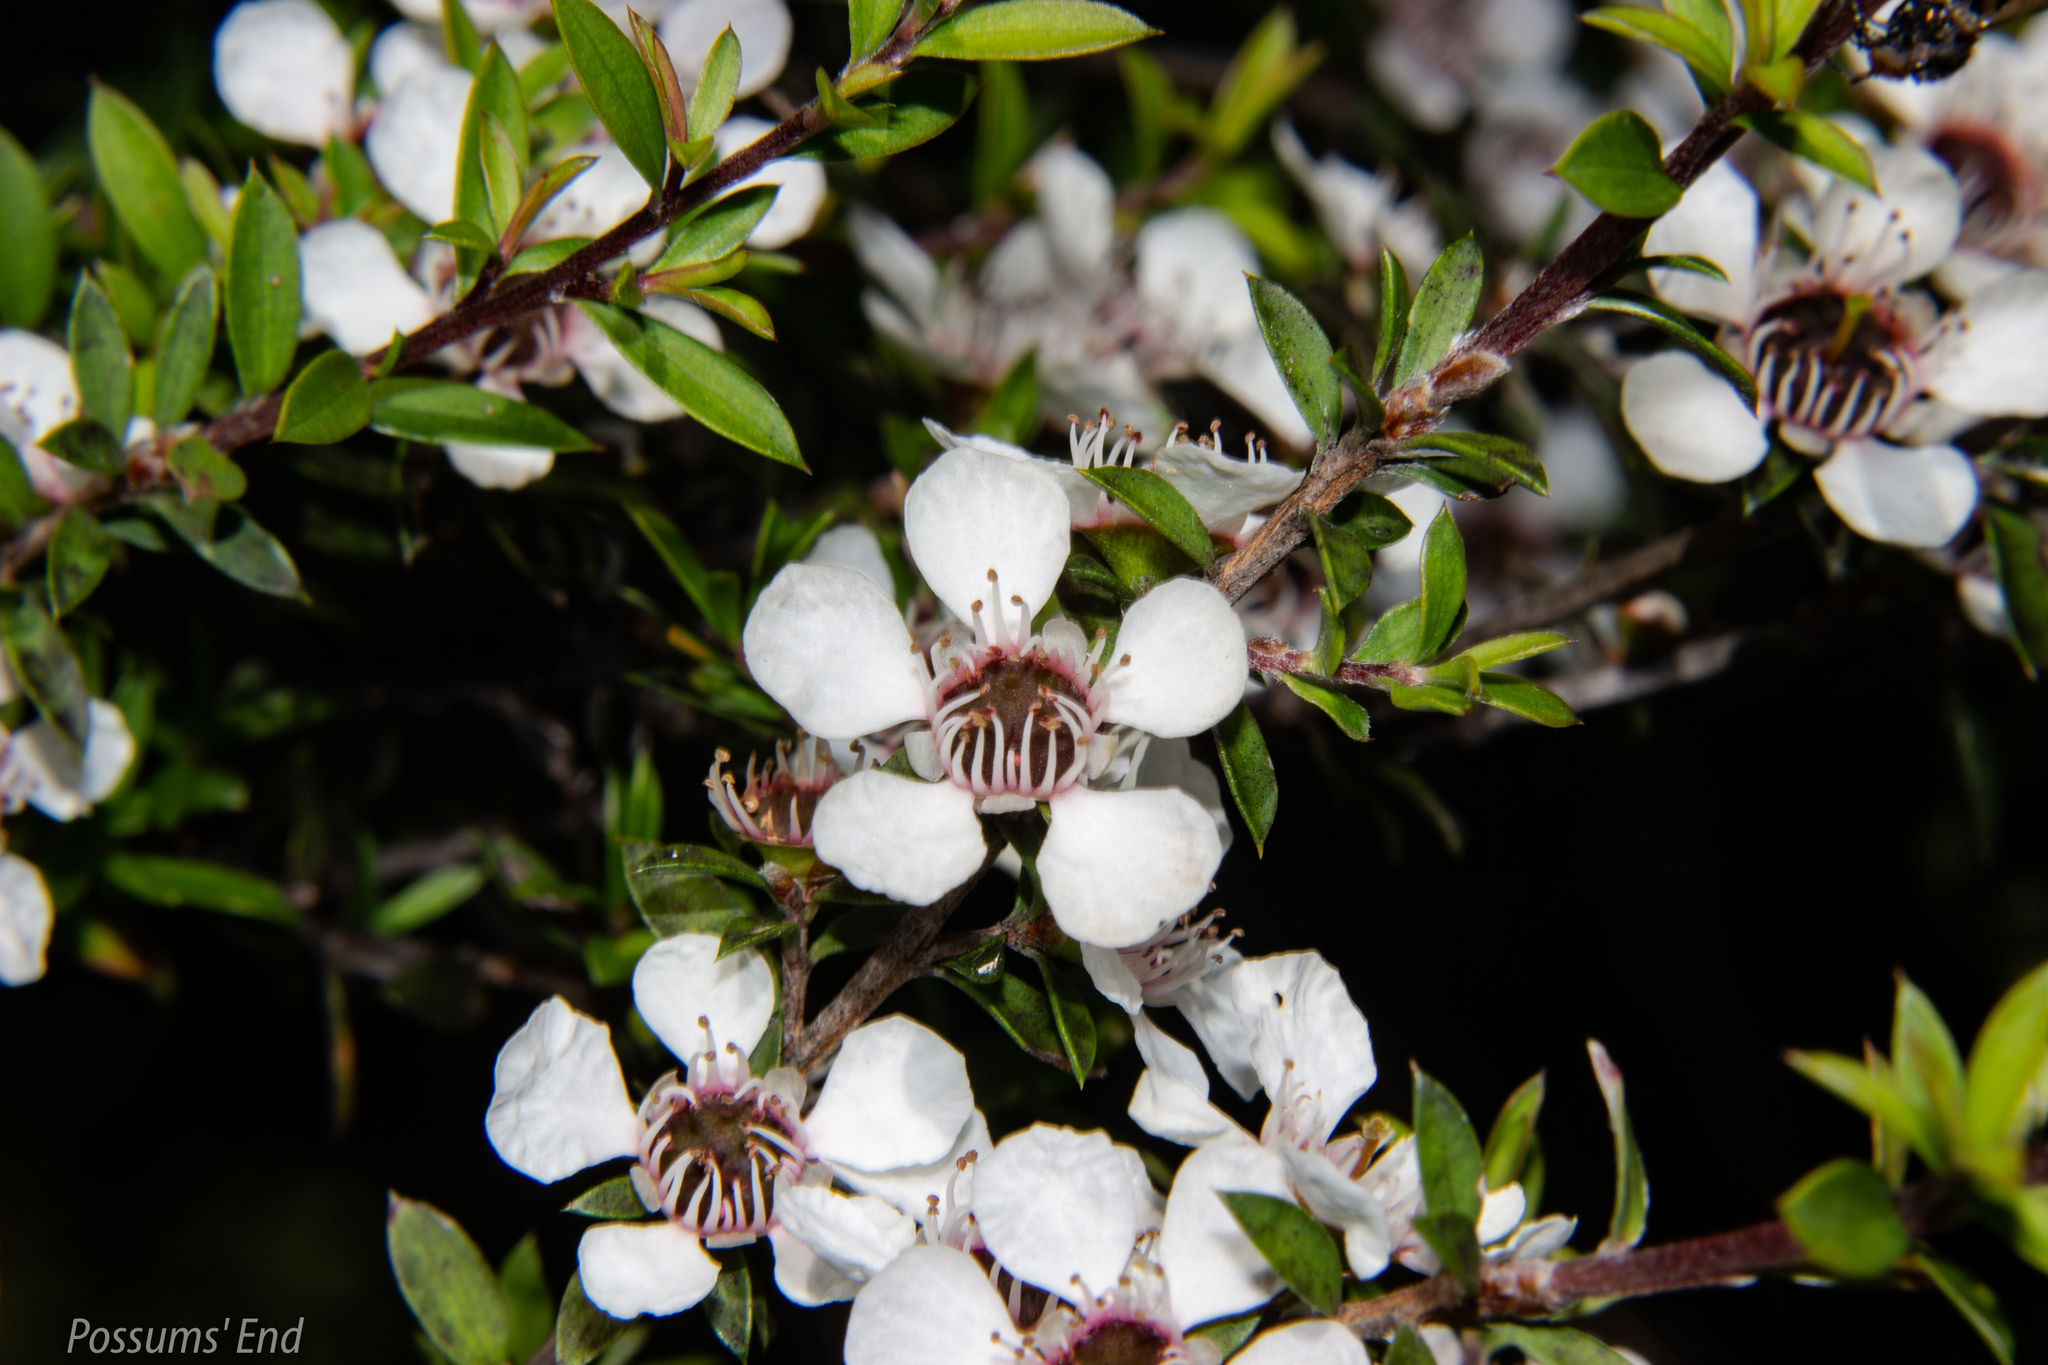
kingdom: Plantae
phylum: Tracheophyta
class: Magnoliopsida
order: Myrtales
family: Myrtaceae
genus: Leptospermum
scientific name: Leptospermum scoparium
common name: Broom tea-tree
